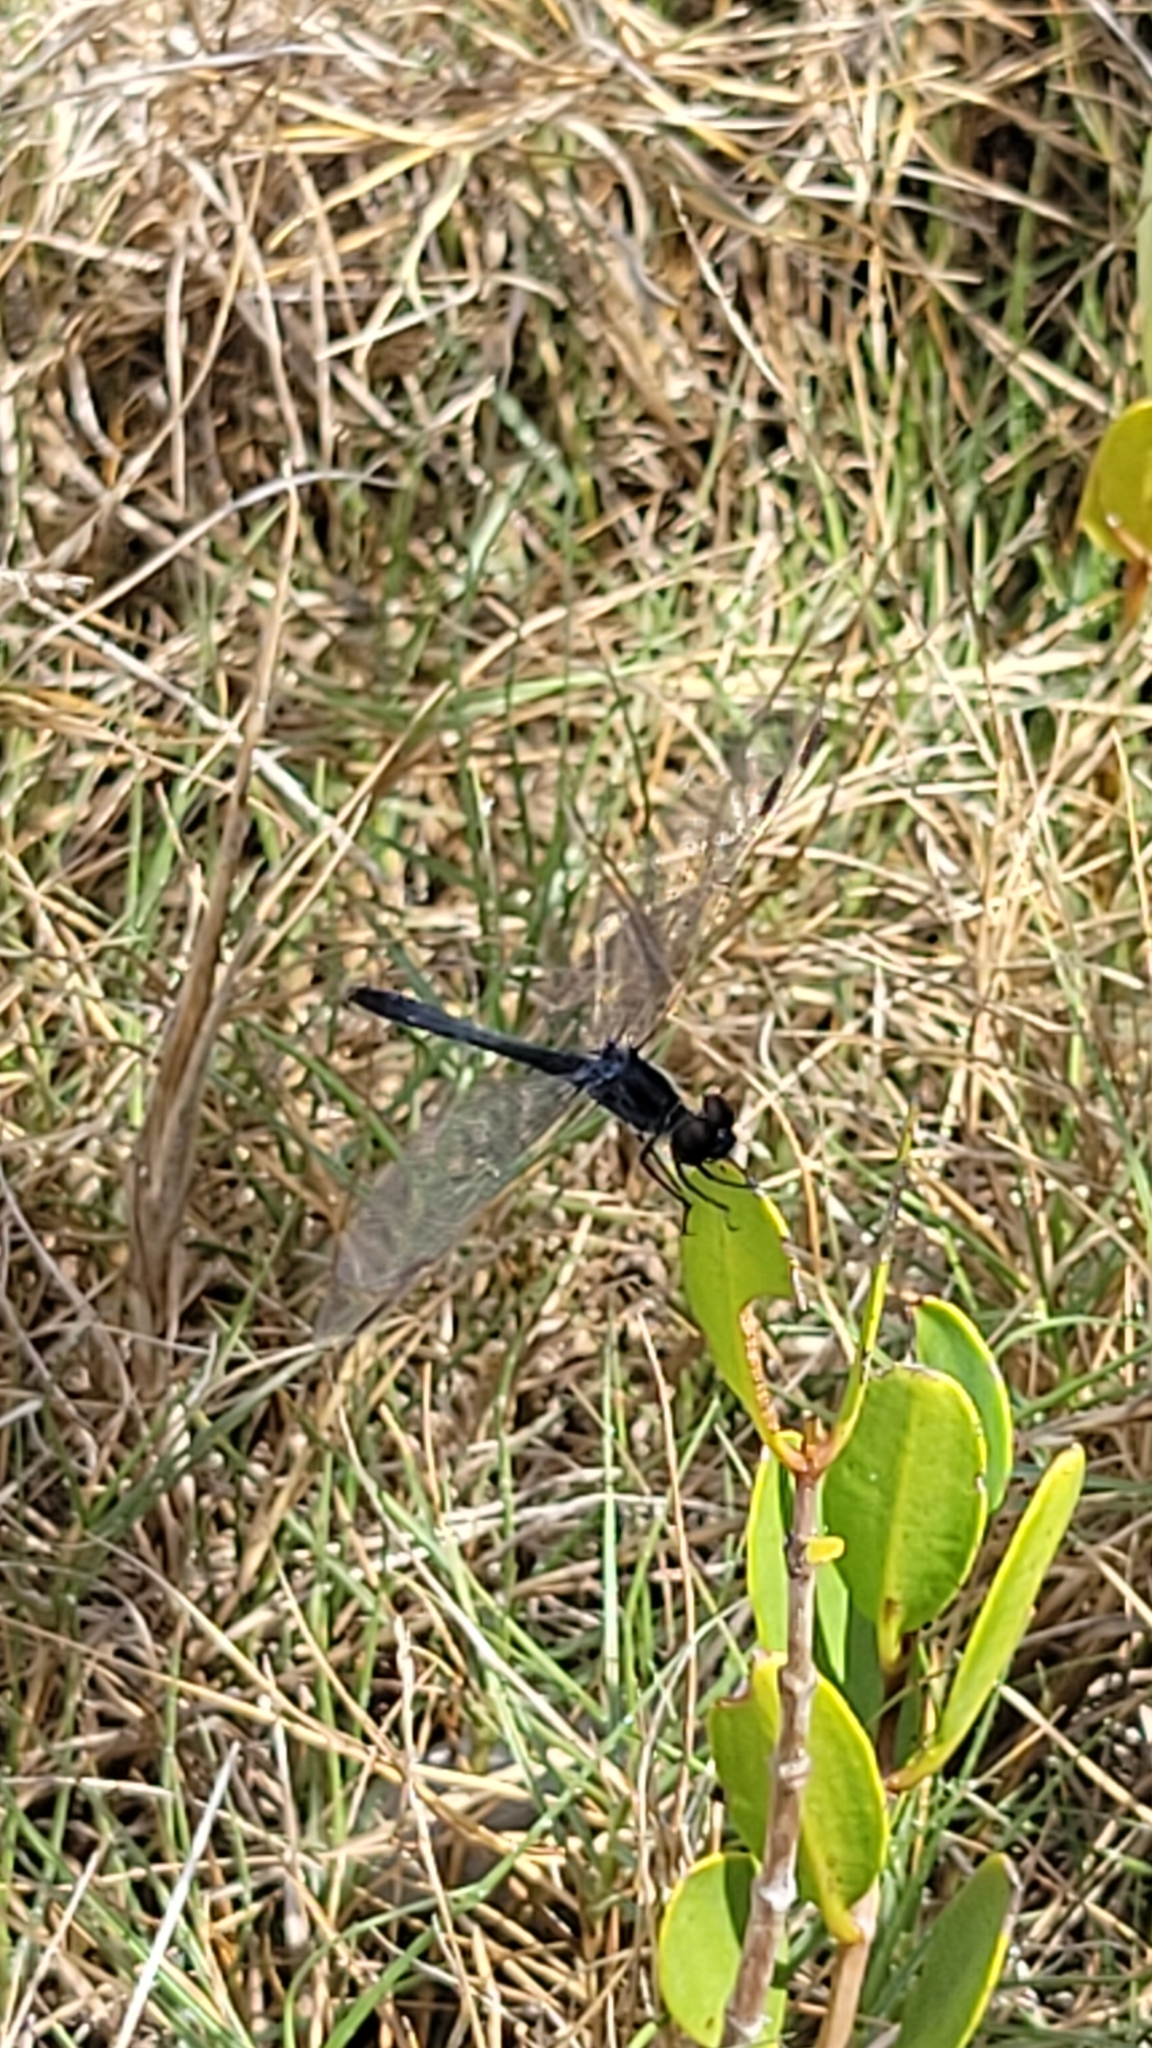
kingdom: Animalia
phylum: Arthropoda
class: Insecta
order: Odonata
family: Libellulidae
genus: Erythrodiplax
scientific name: Erythrodiplax berenice
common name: Seaside dragonlet
